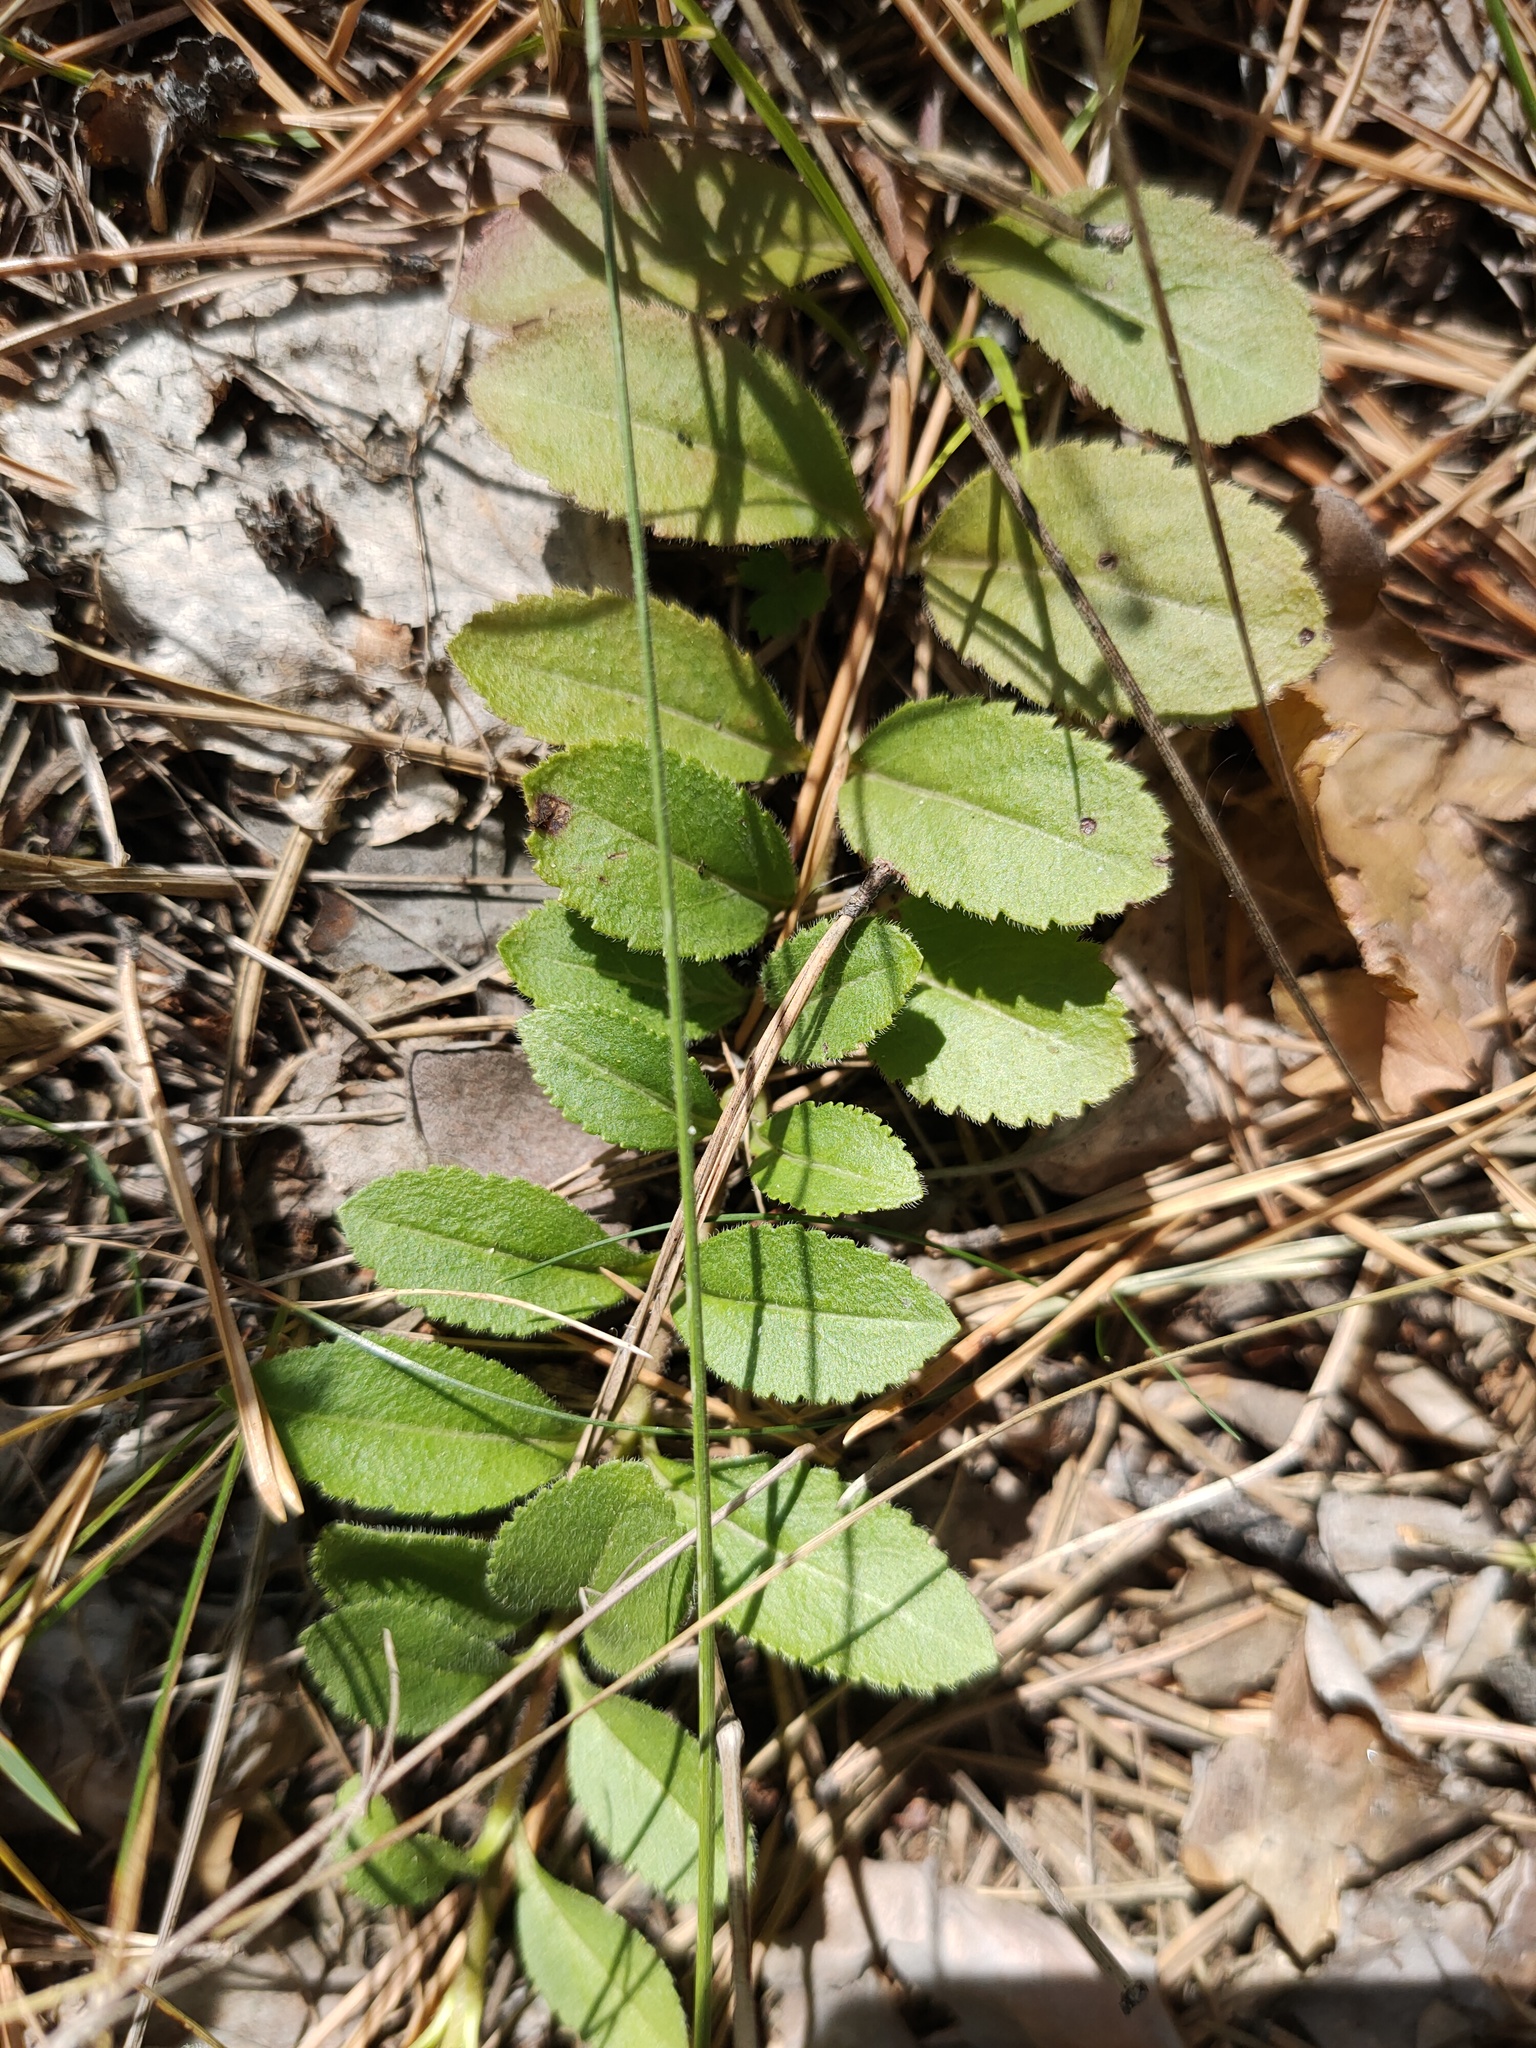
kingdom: Plantae
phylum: Tracheophyta
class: Magnoliopsida
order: Lamiales
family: Plantaginaceae
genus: Veronica
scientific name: Veronica officinalis
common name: Common speedwell
